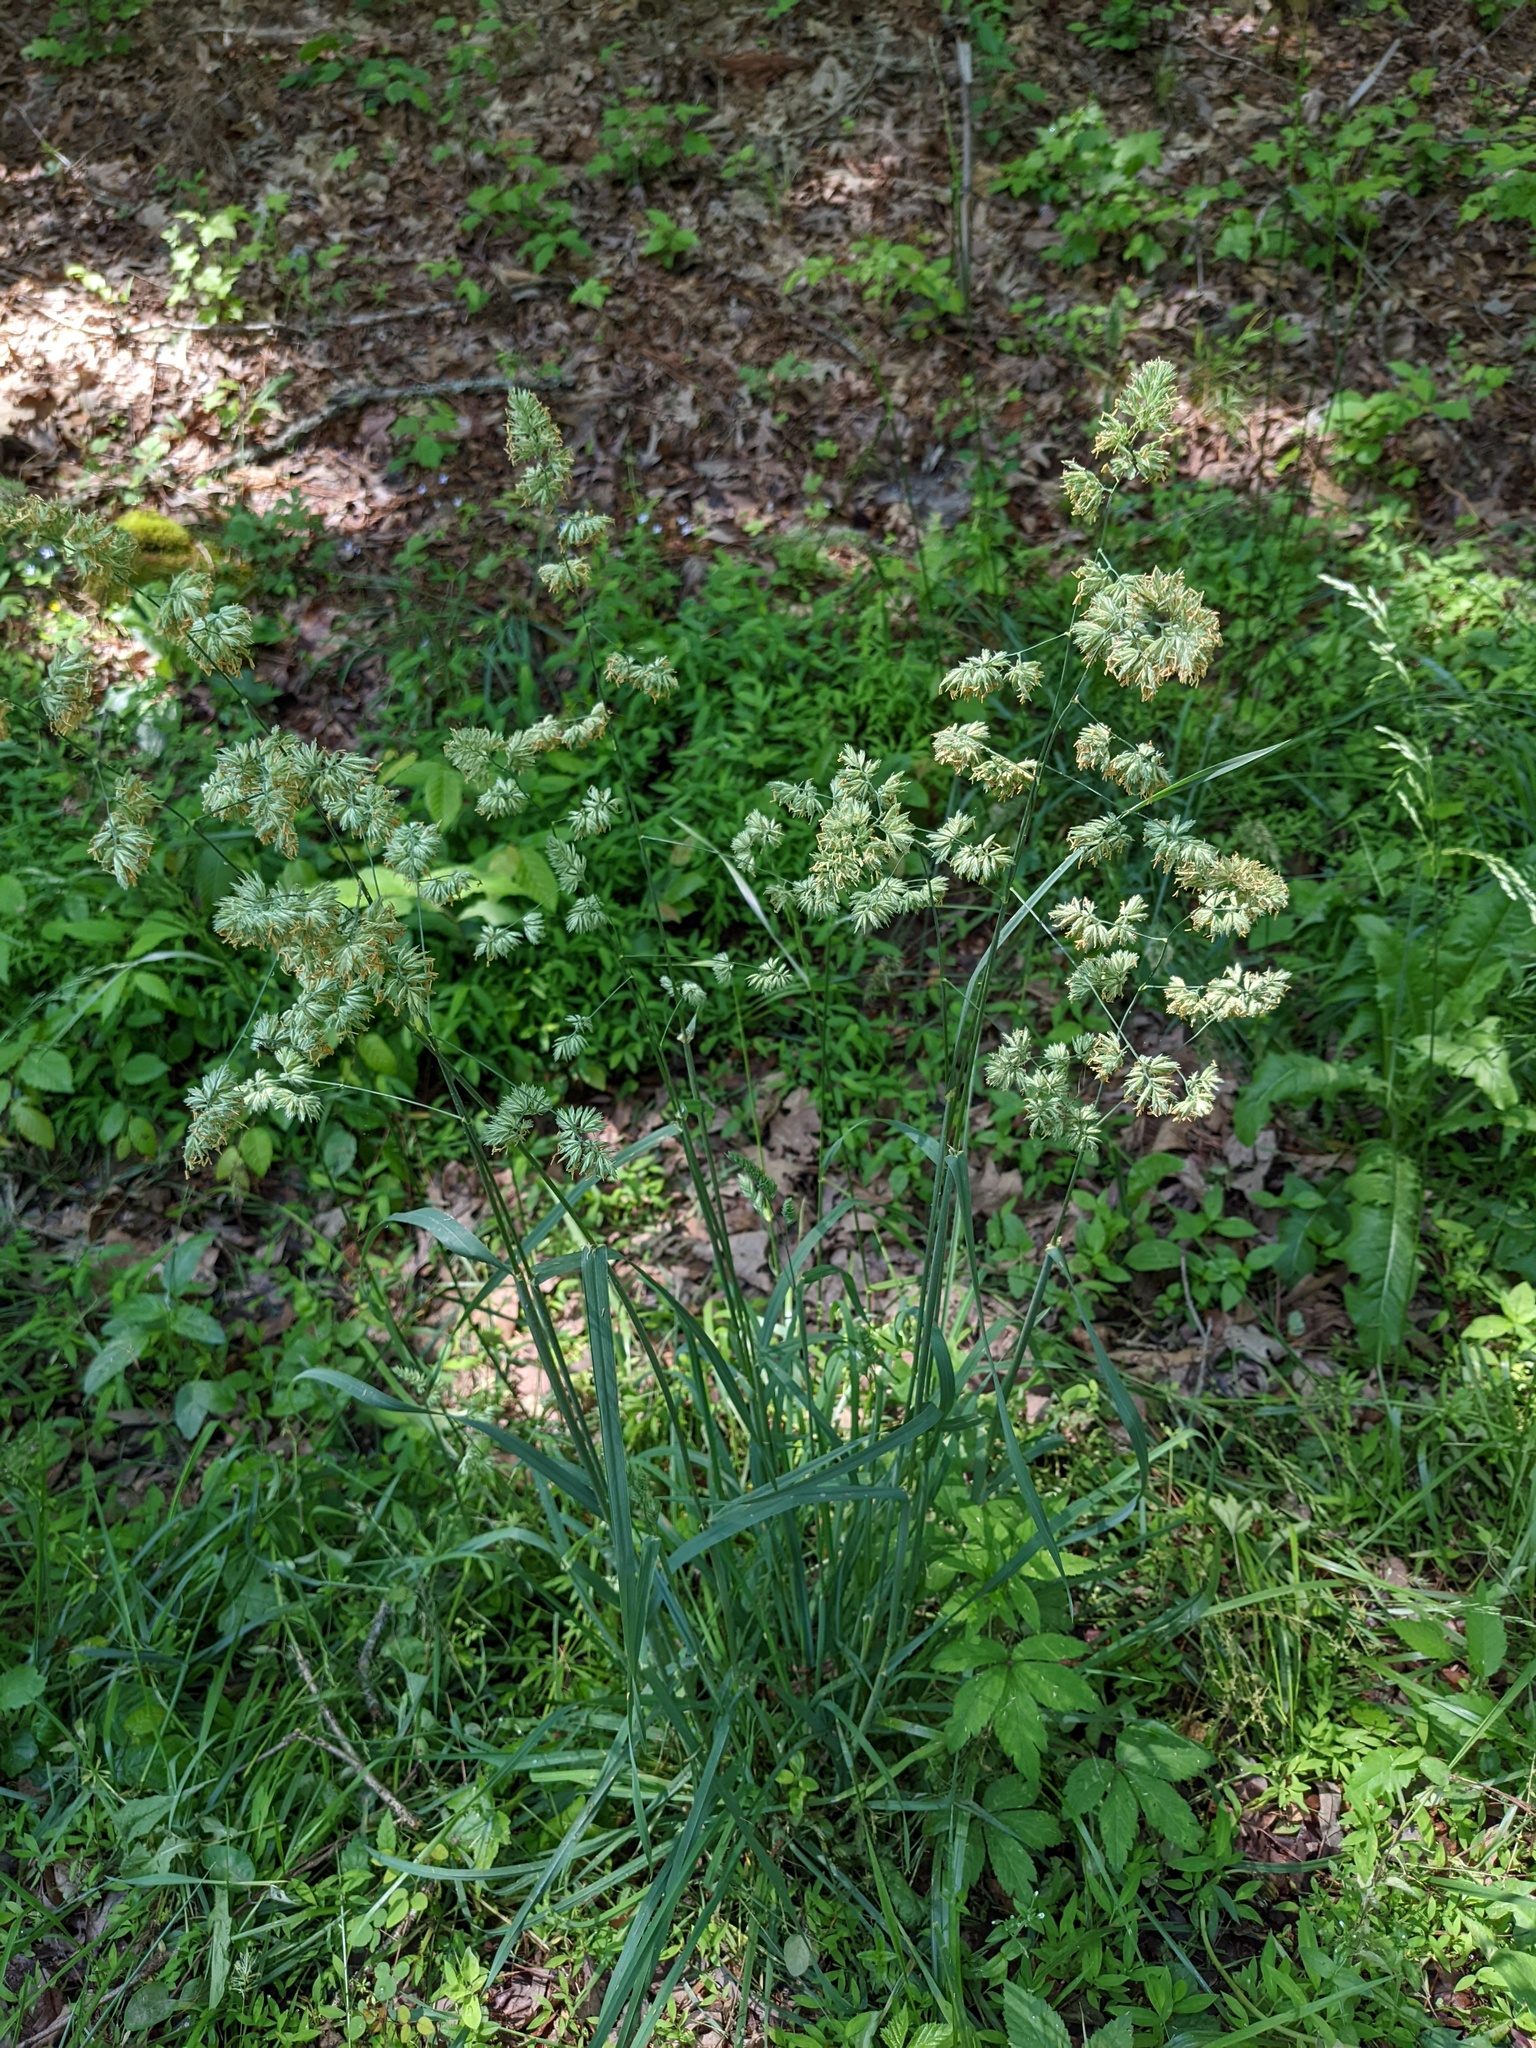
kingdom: Plantae
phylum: Tracheophyta
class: Liliopsida
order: Poales
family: Poaceae
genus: Dactylis
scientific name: Dactylis glomerata
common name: Orchardgrass
